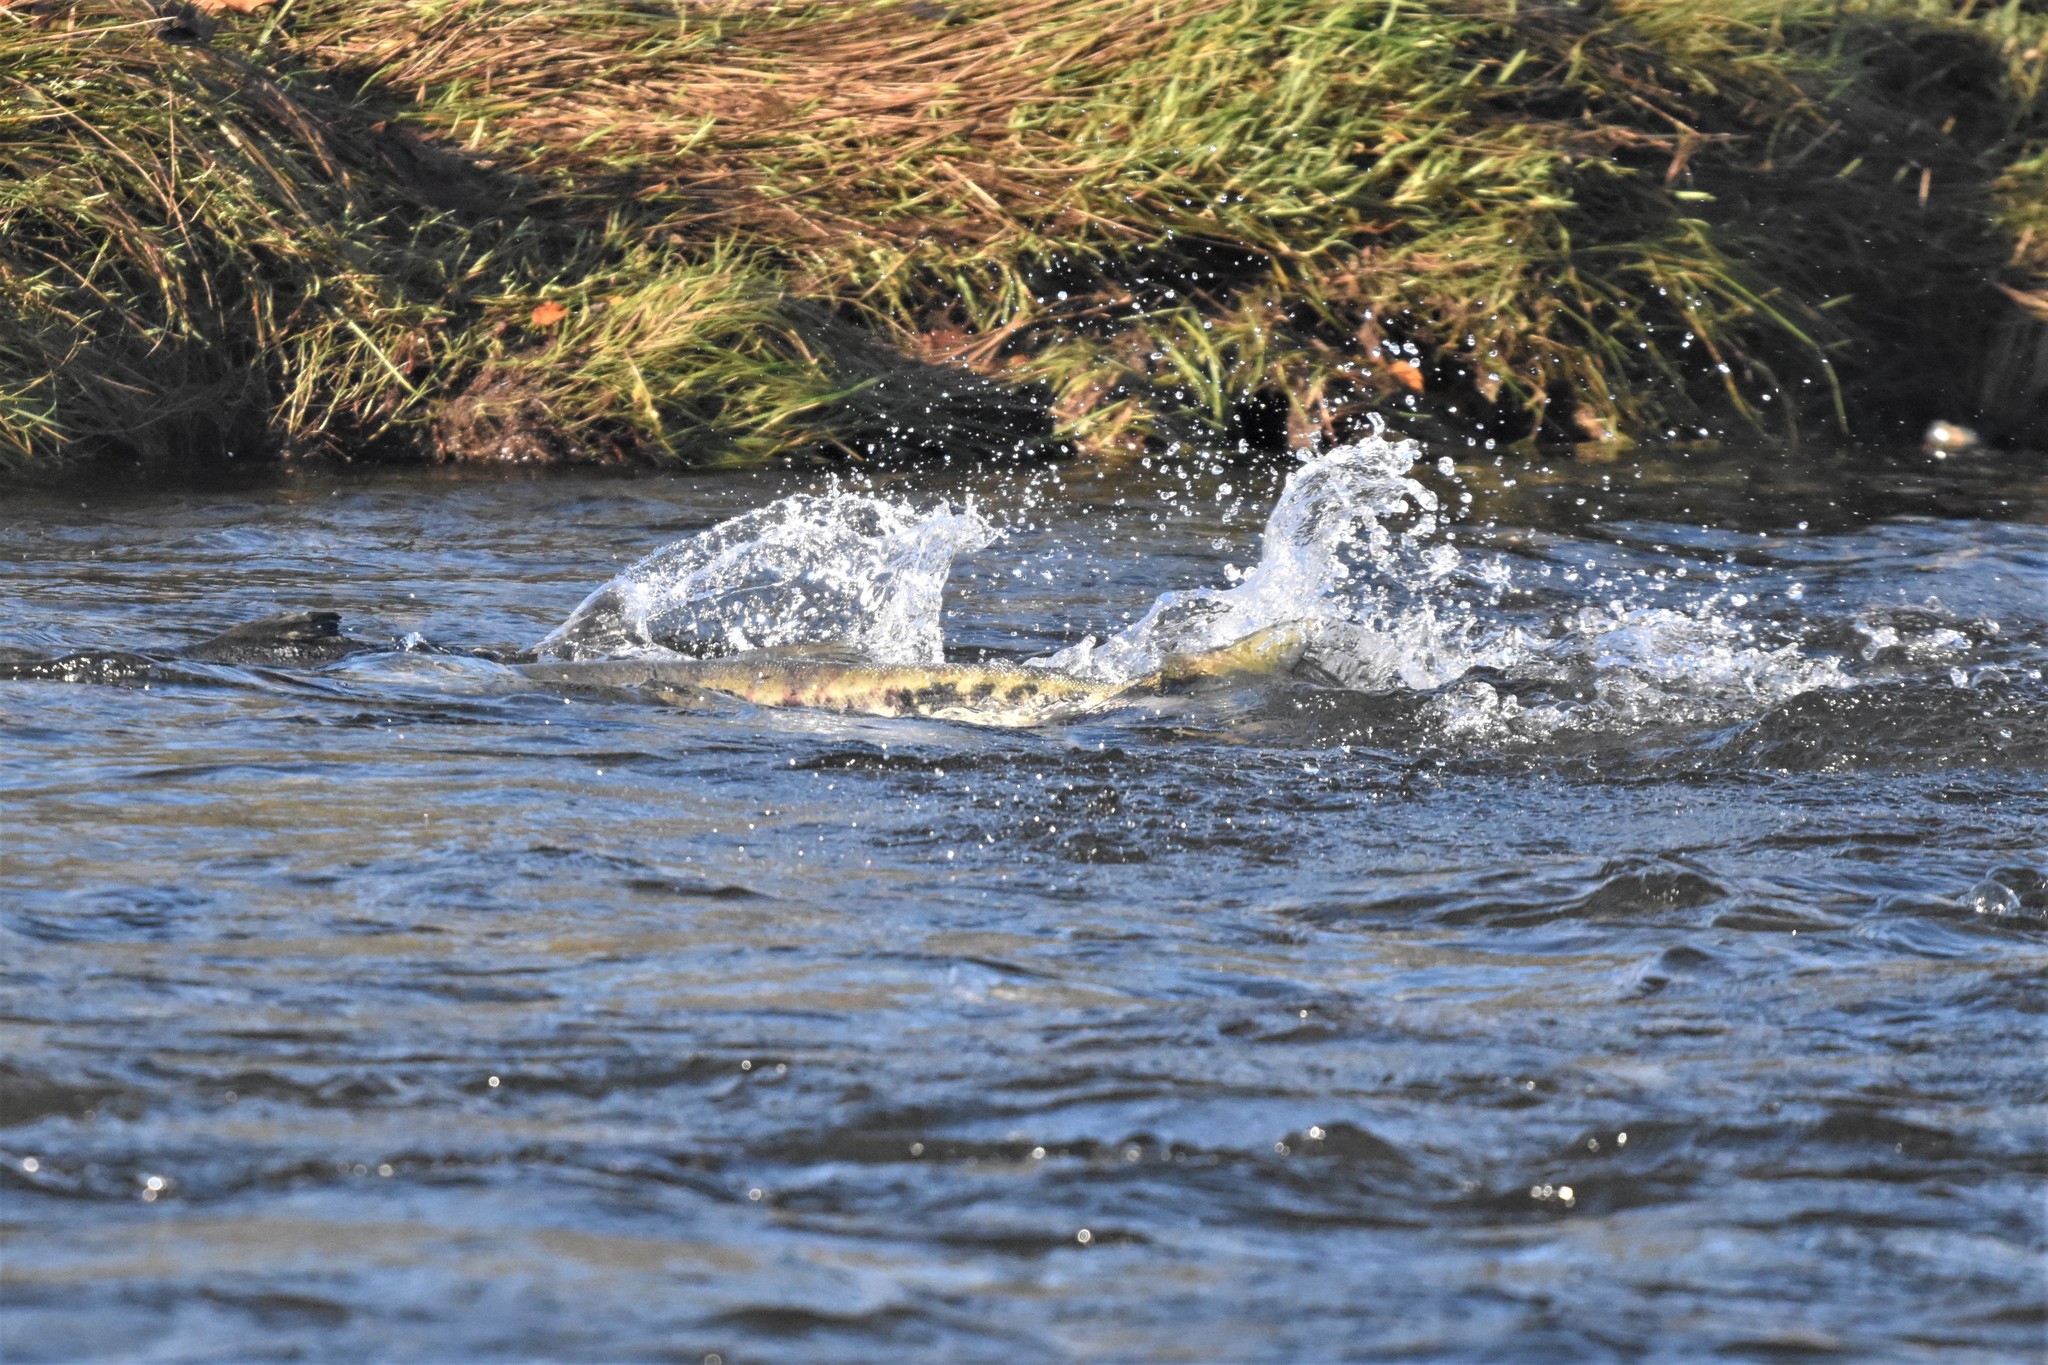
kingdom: Animalia
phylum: Chordata
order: Salmoniformes
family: Salmonidae
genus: Oncorhynchus
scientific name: Oncorhynchus keta
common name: Chum salmon
